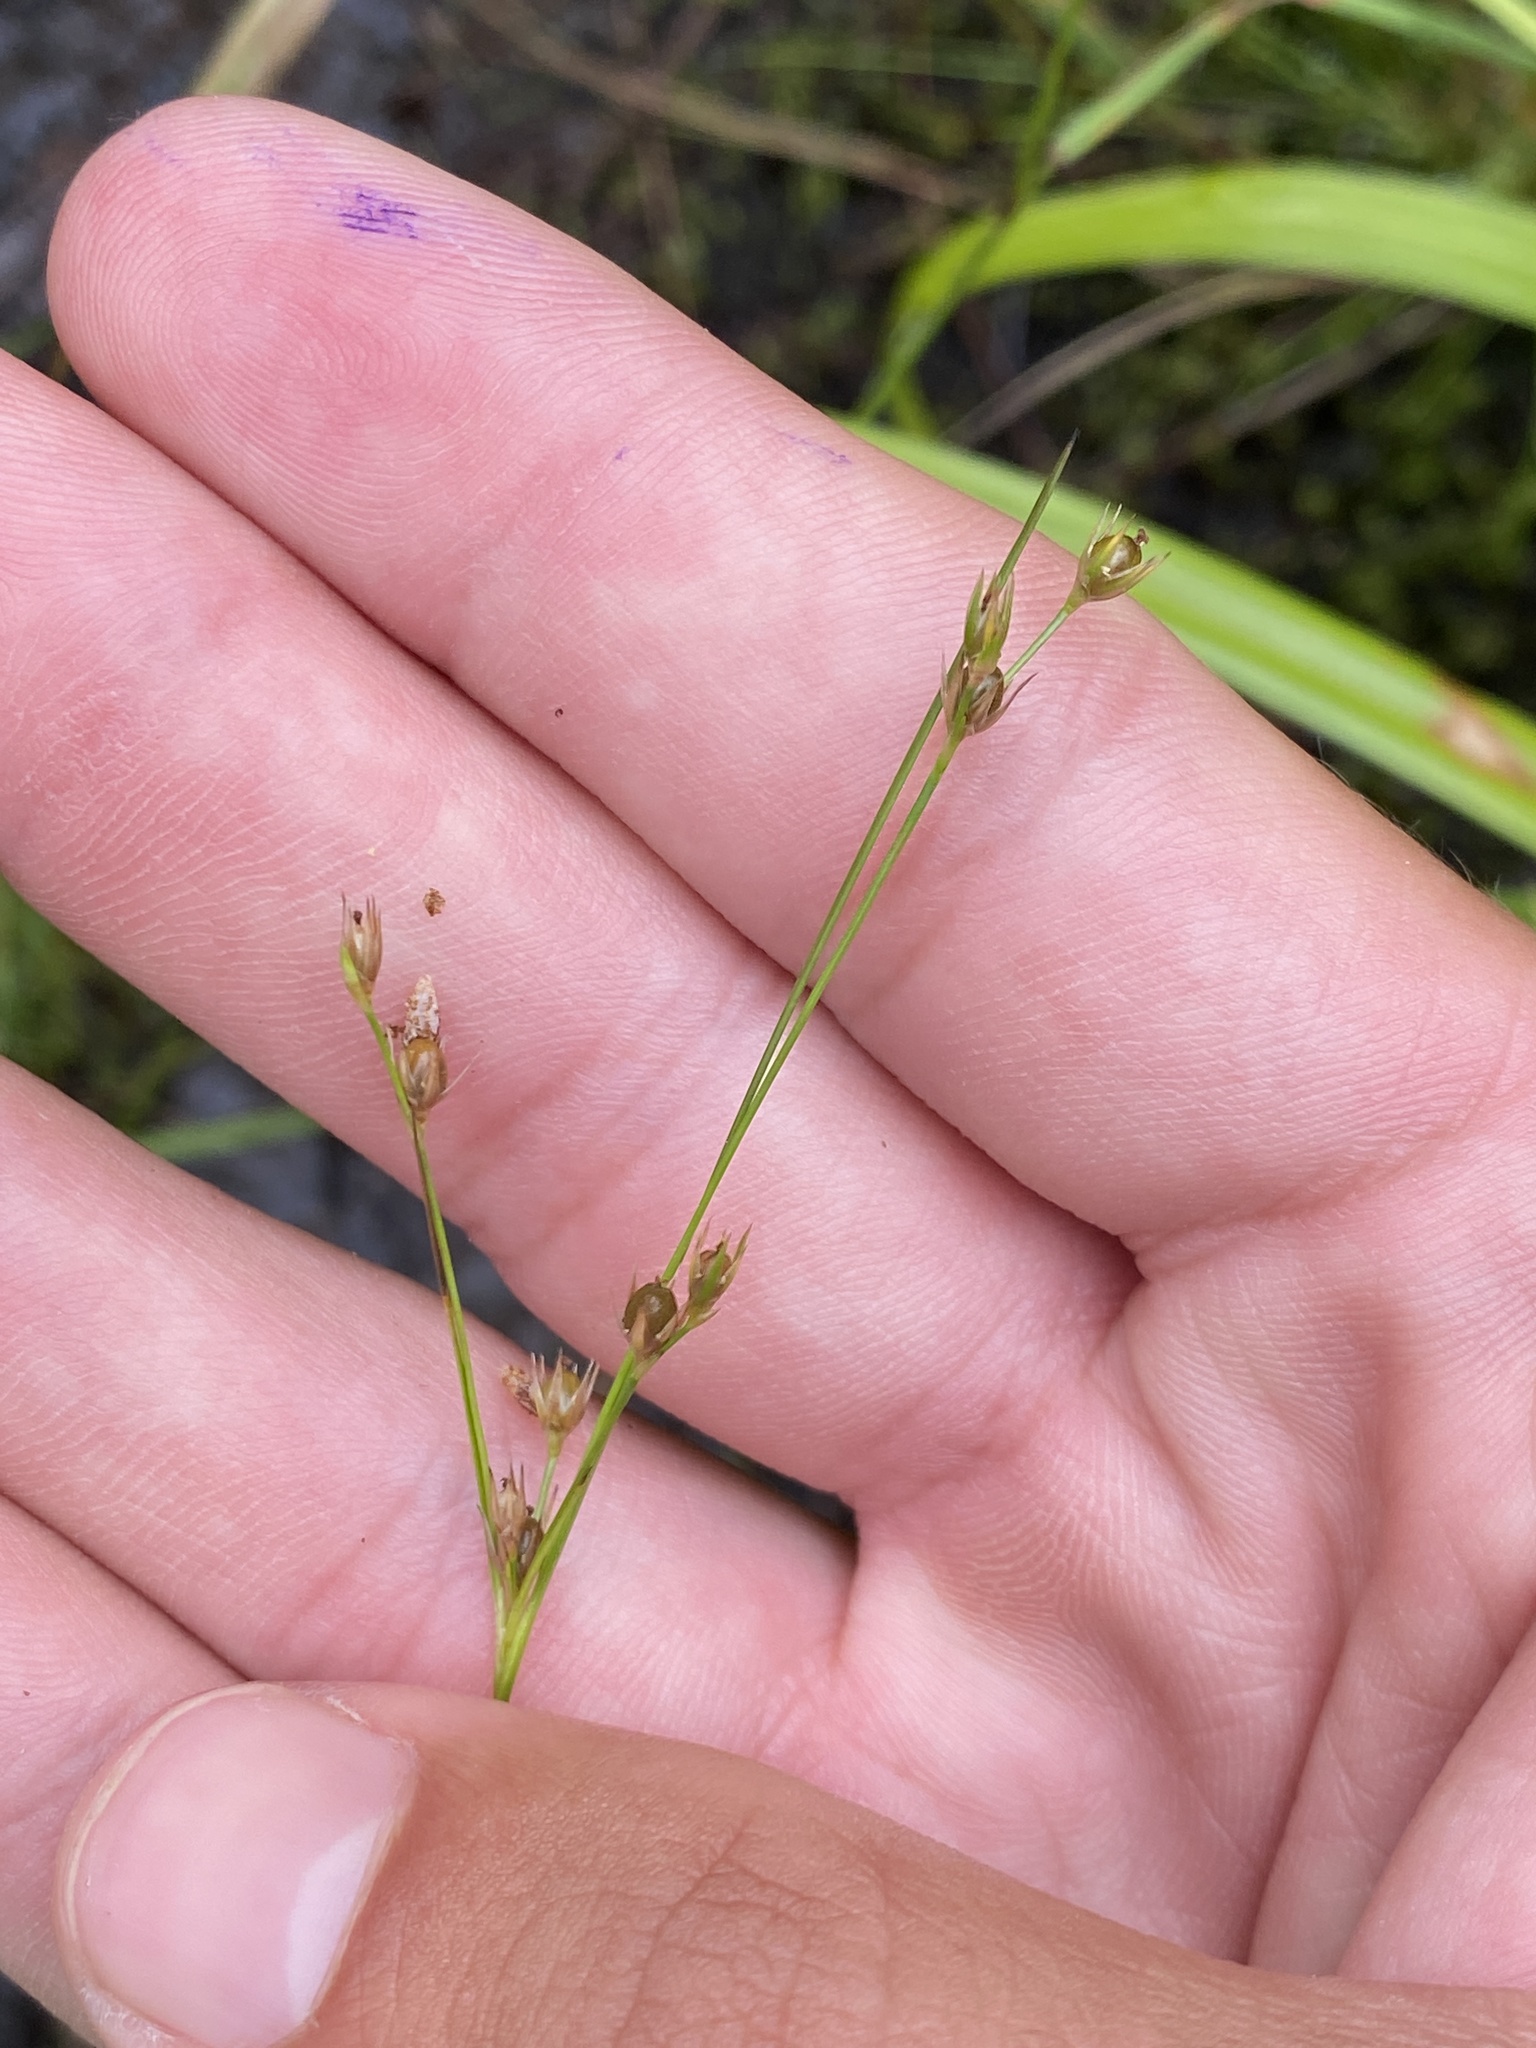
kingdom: Plantae
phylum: Tracheophyta
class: Liliopsida
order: Poales
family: Juncaceae
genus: Juncus
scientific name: Juncus tenuis
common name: Slender rush
